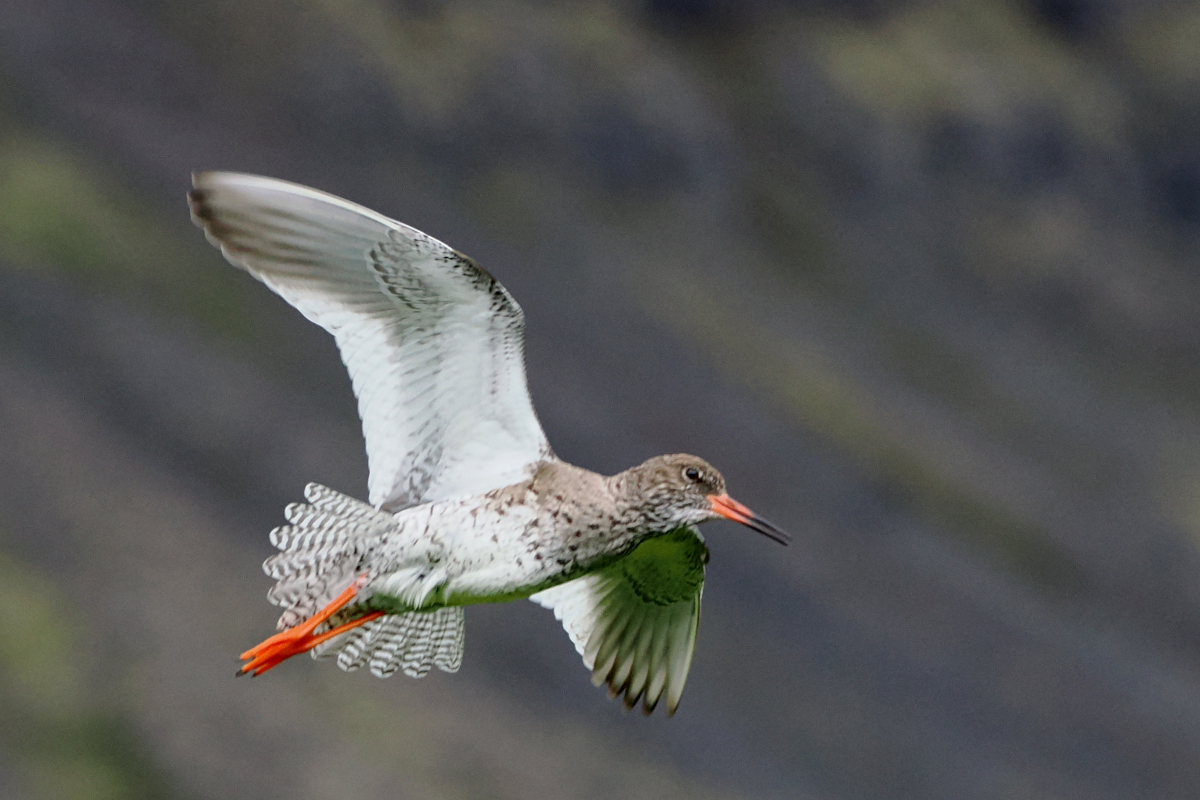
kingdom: Animalia
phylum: Chordata
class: Aves
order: Charadriiformes
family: Scolopacidae
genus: Tringa
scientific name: Tringa totanus
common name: Common redshank
